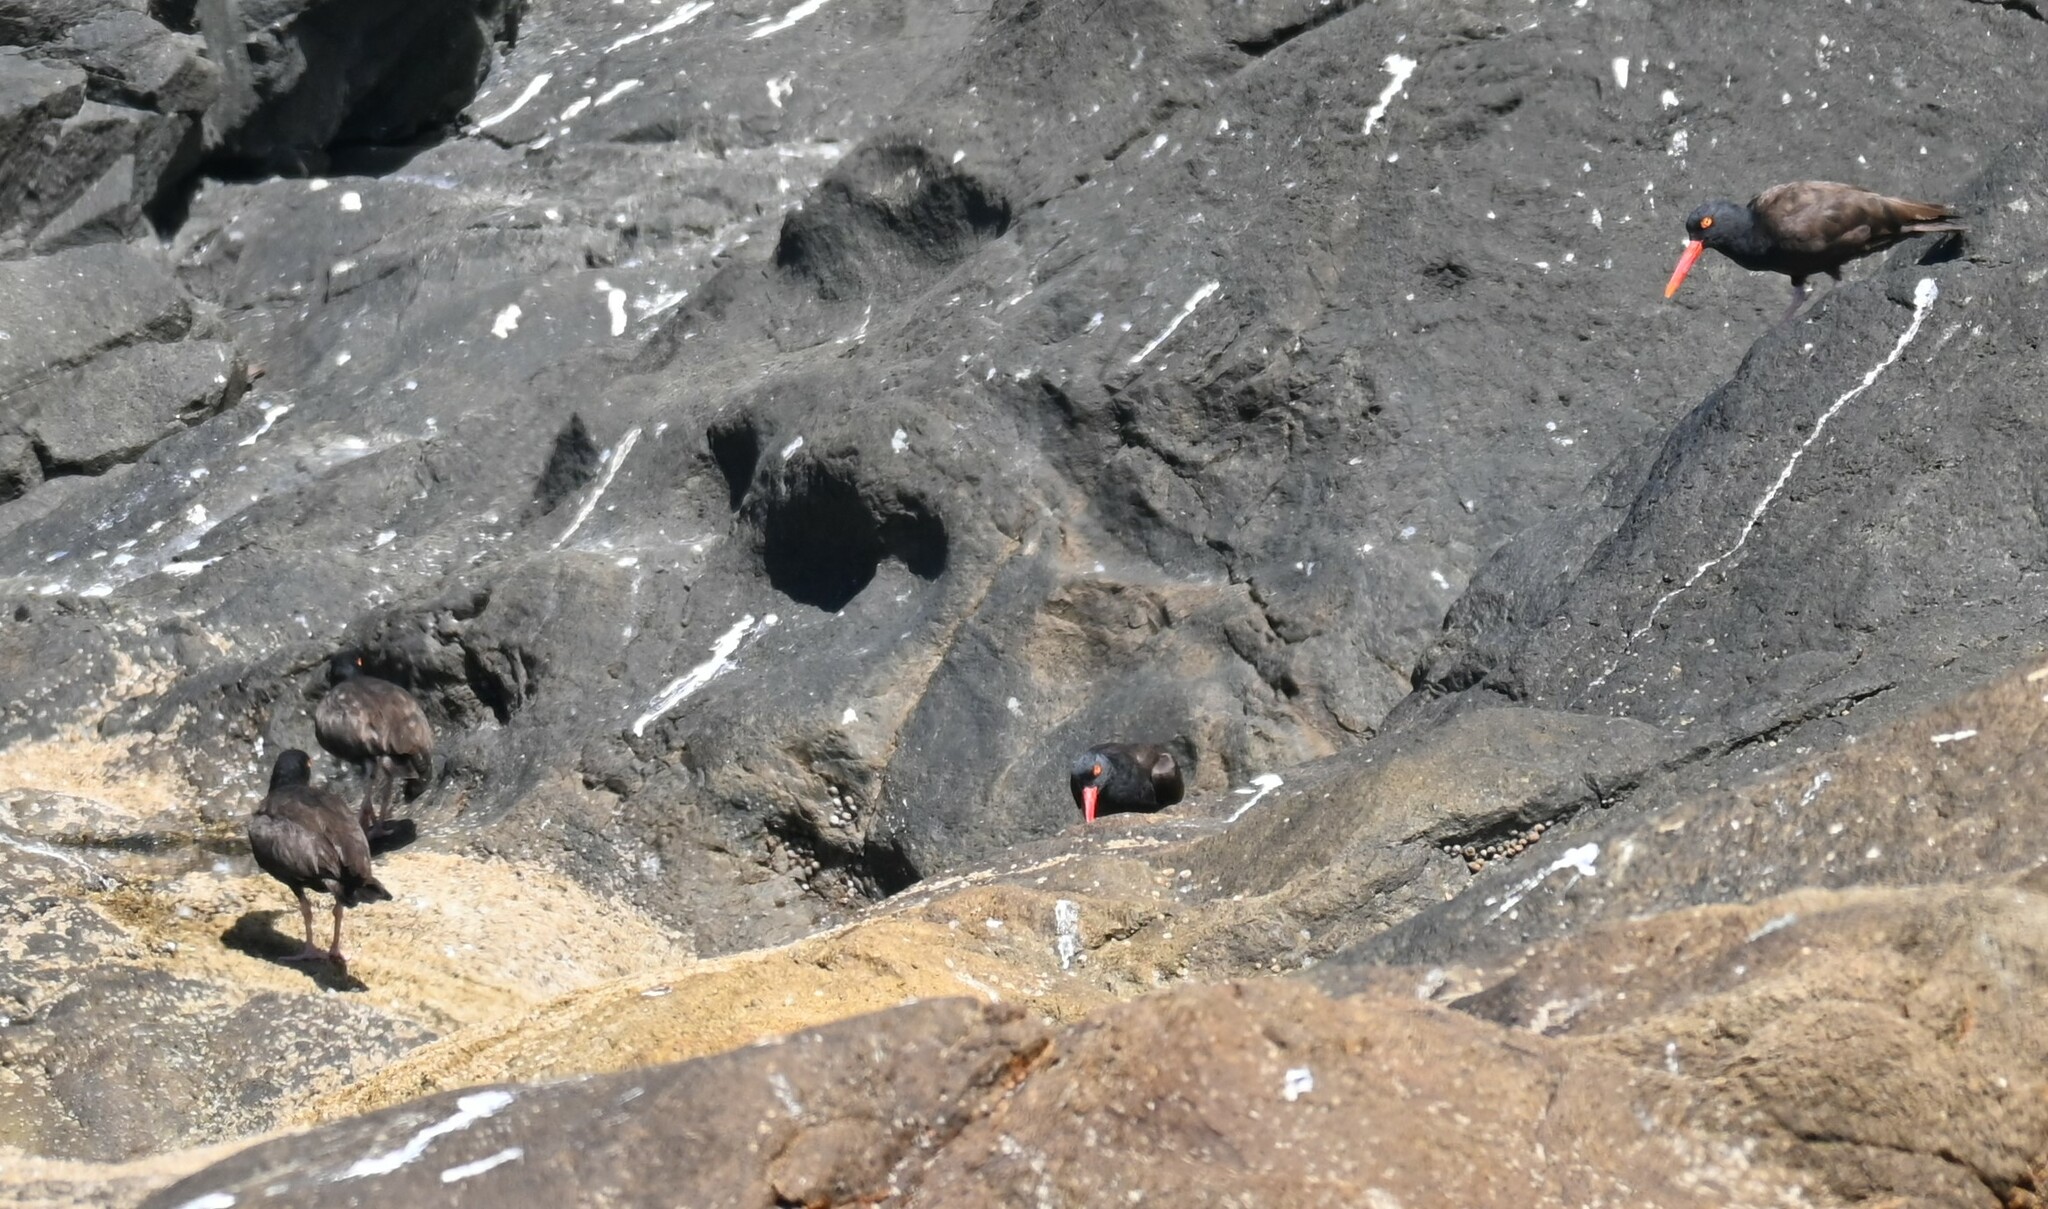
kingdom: Animalia
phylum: Chordata
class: Aves
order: Charadriiformes
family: Haematopodidae
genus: Haematopus
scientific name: Haematopus bachmani
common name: Black oystercatcher
